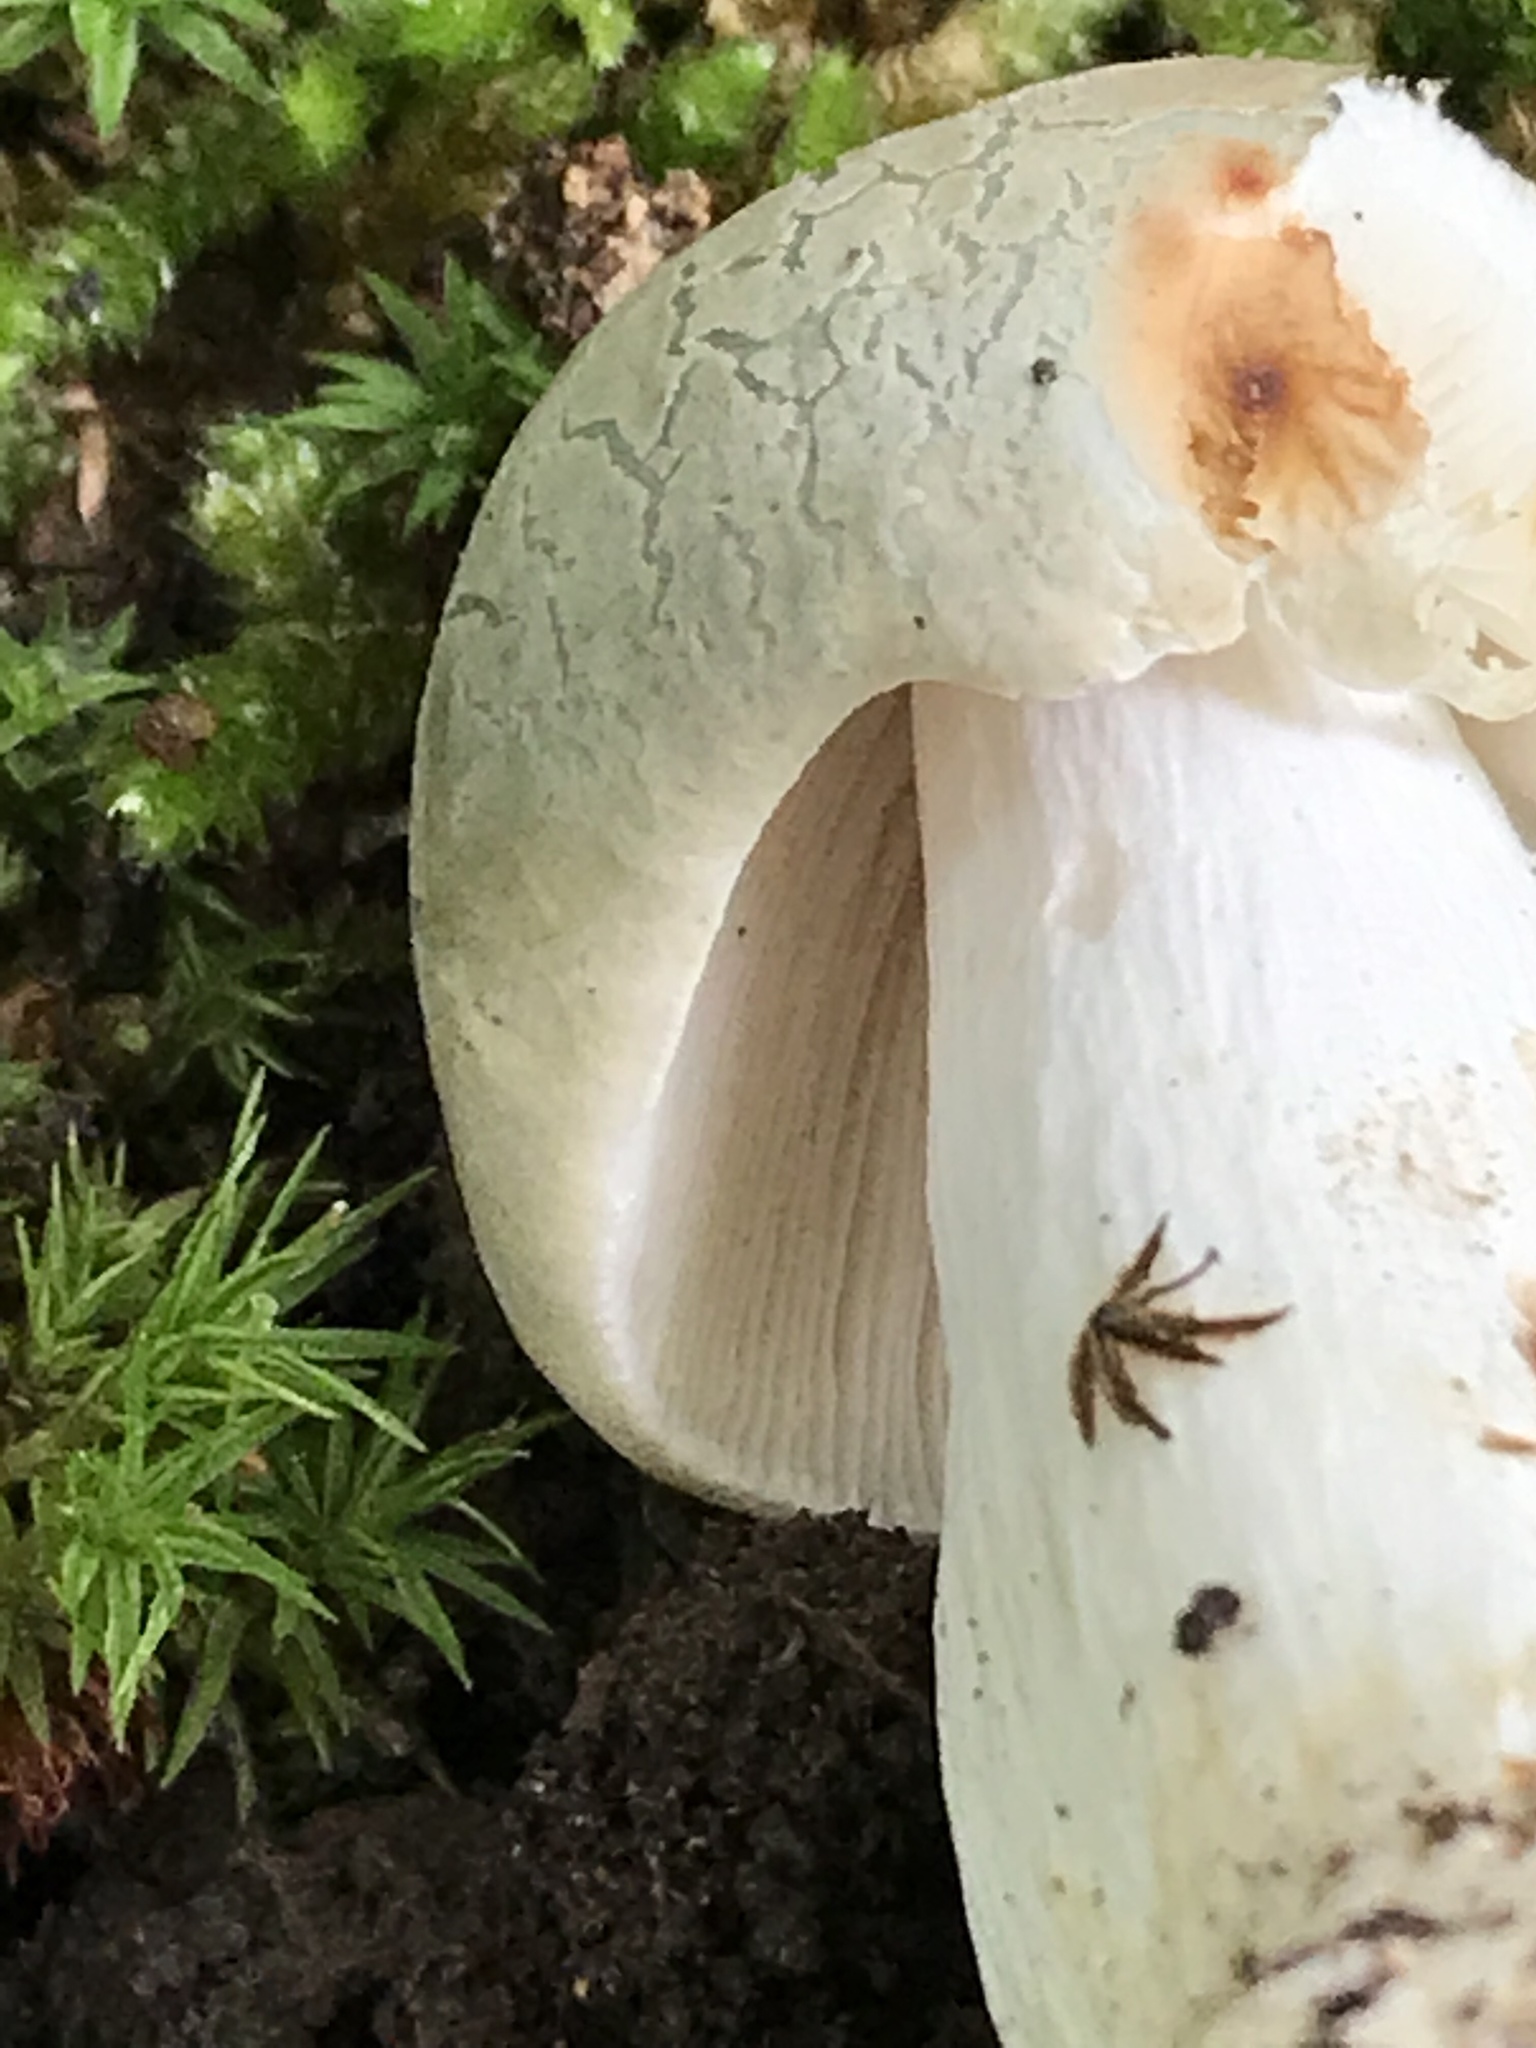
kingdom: Fungi
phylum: Basidiomycota
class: Agaricomycetes
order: Russulales
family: Russulaceae
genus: Russula
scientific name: Russula parvovirescens
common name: Blue-green cracking russula
